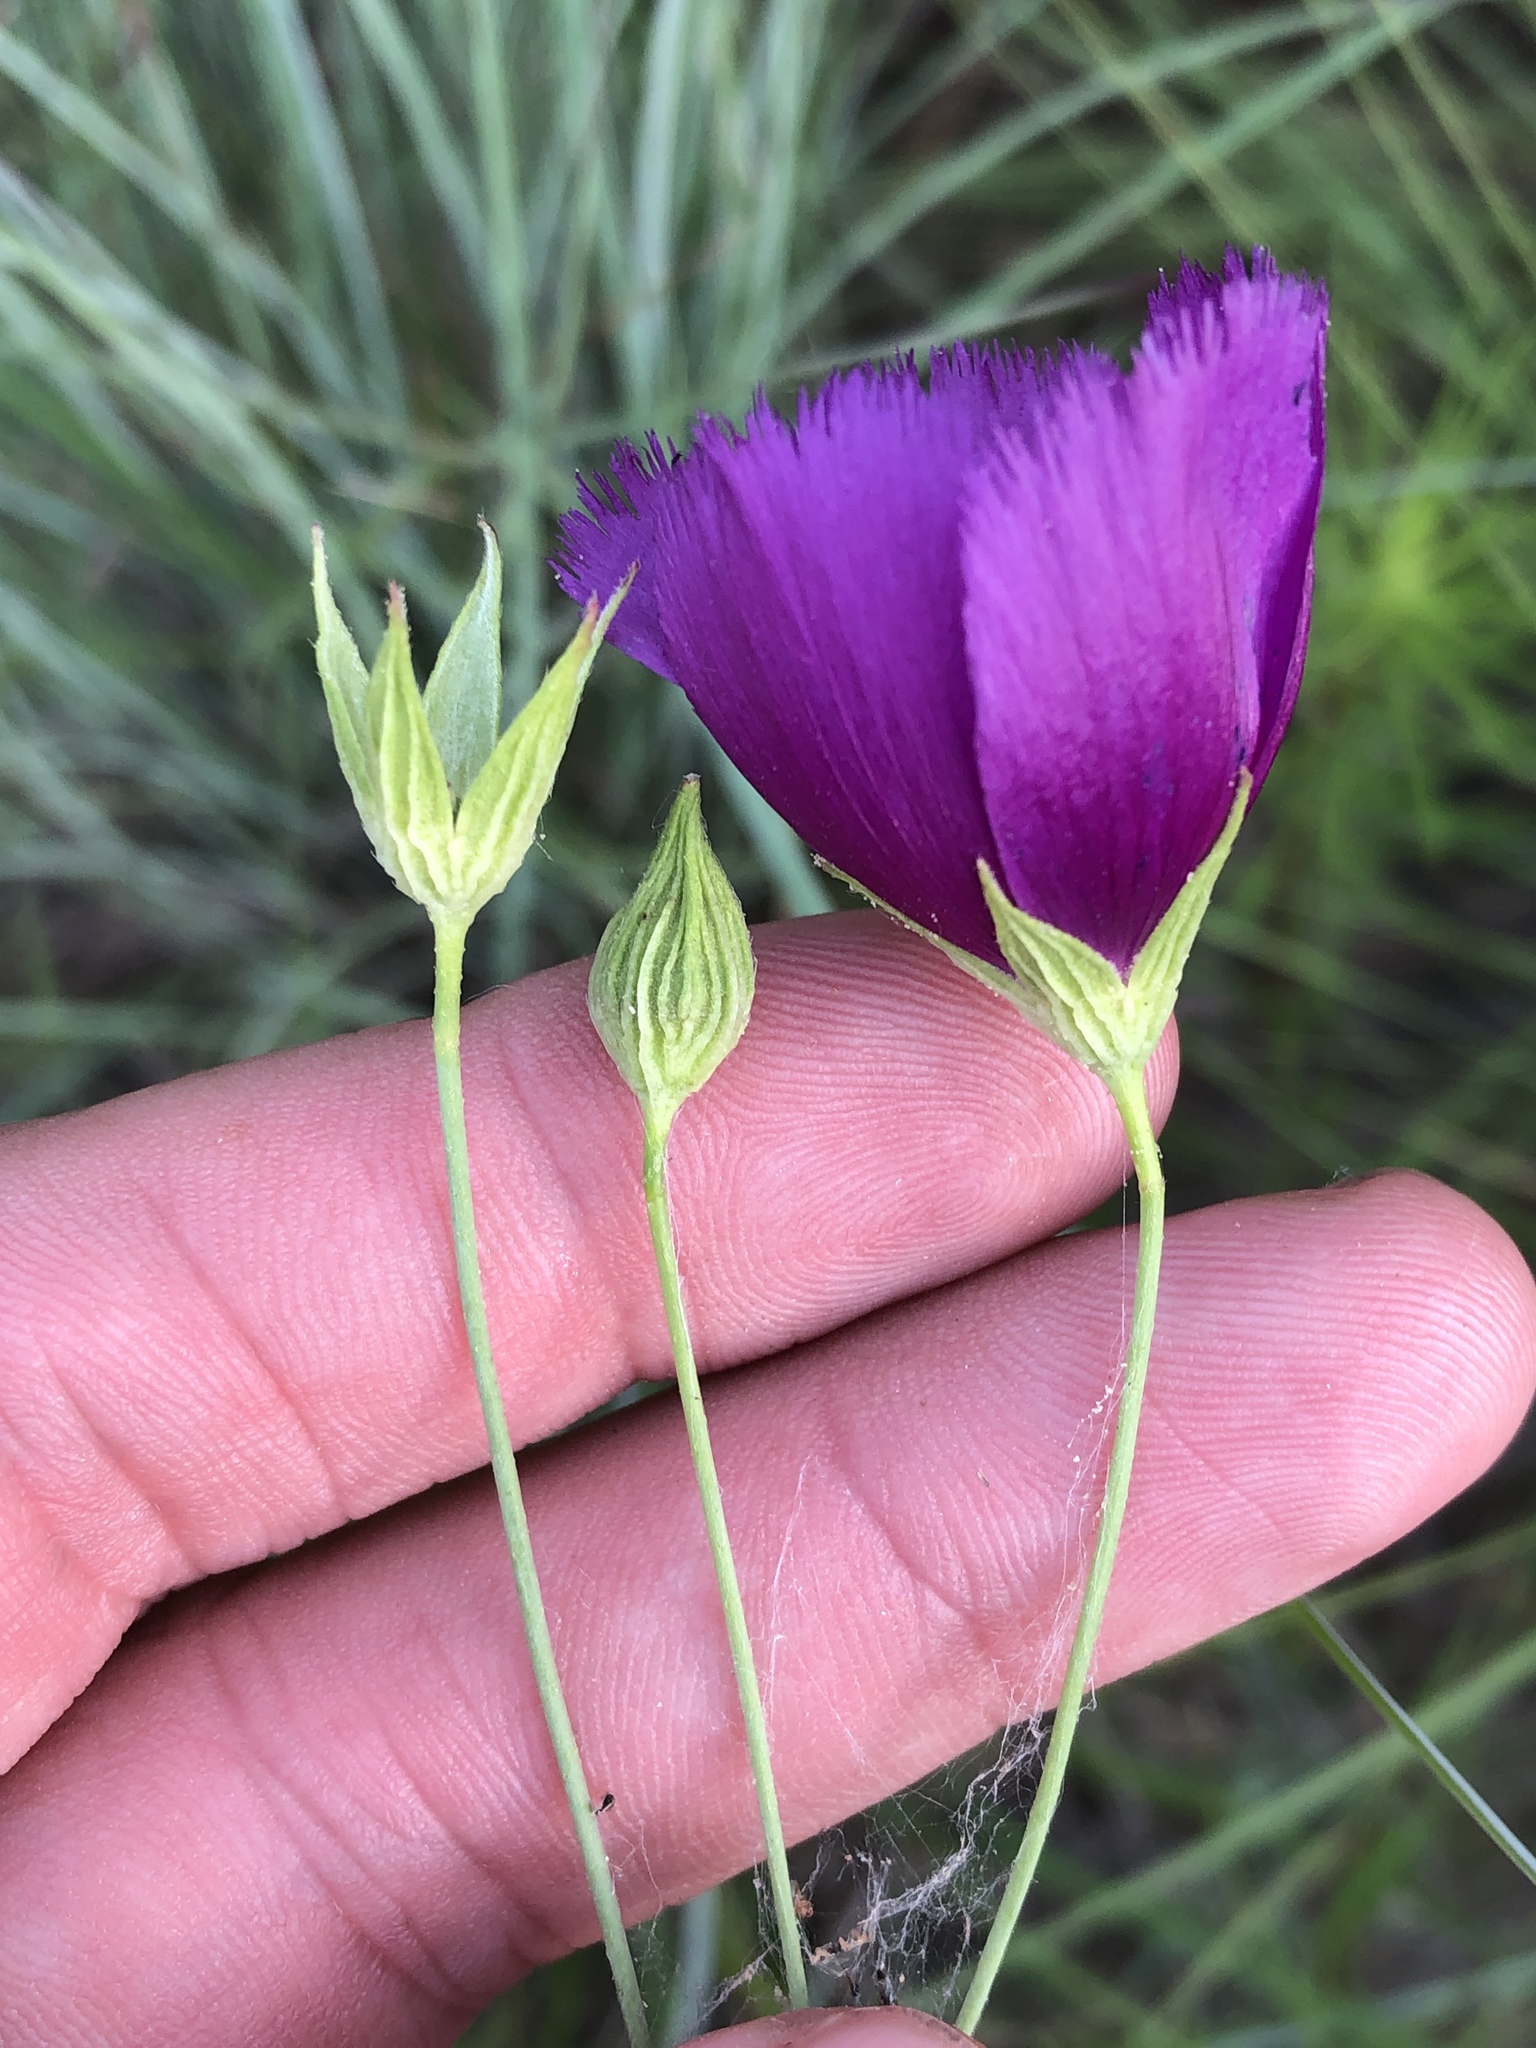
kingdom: Plantae
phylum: Tracheophyta
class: Magnoliopsida
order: Malvales
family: Malvaceae
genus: Callirhoe
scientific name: Callirhoe pedata
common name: Finger poppy-mallow
